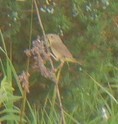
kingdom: Animalia
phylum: Chordata
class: Aves
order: Passeriformes
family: Parulidae
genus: Geothlypis
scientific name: Geothlypis trichas
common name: Common yellowthroat
